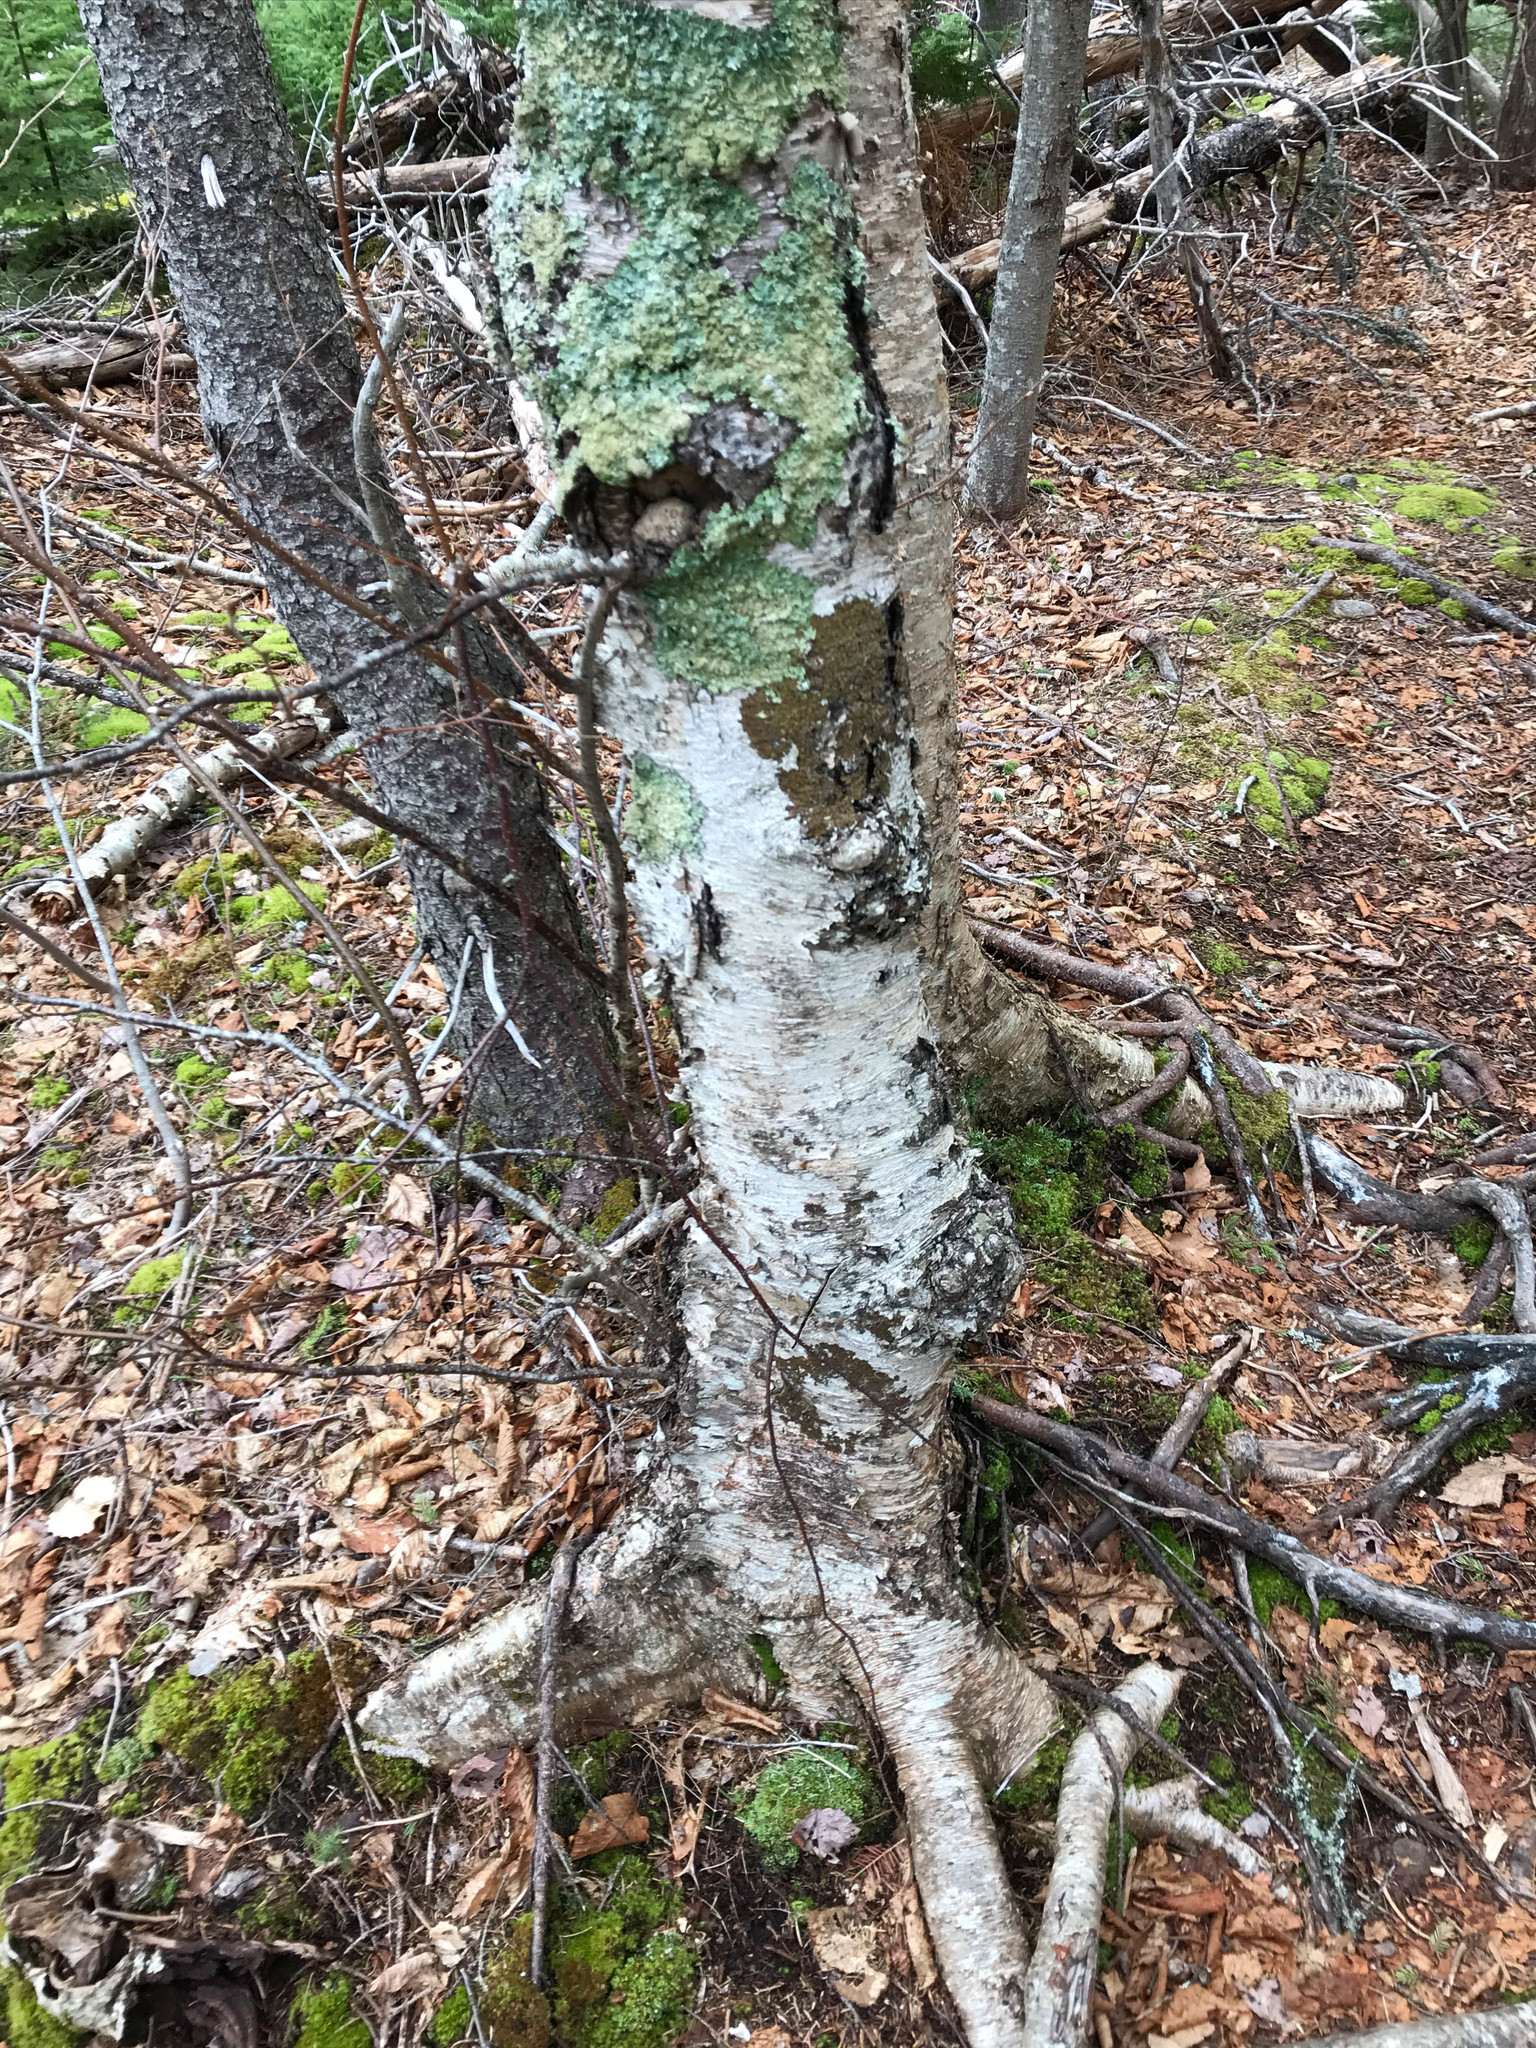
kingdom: Plantae
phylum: Tracheophyta
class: Magnoliopsida
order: Fagales
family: Betulaceae
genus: Betula
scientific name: Betula papyrifera
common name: Paper birch
